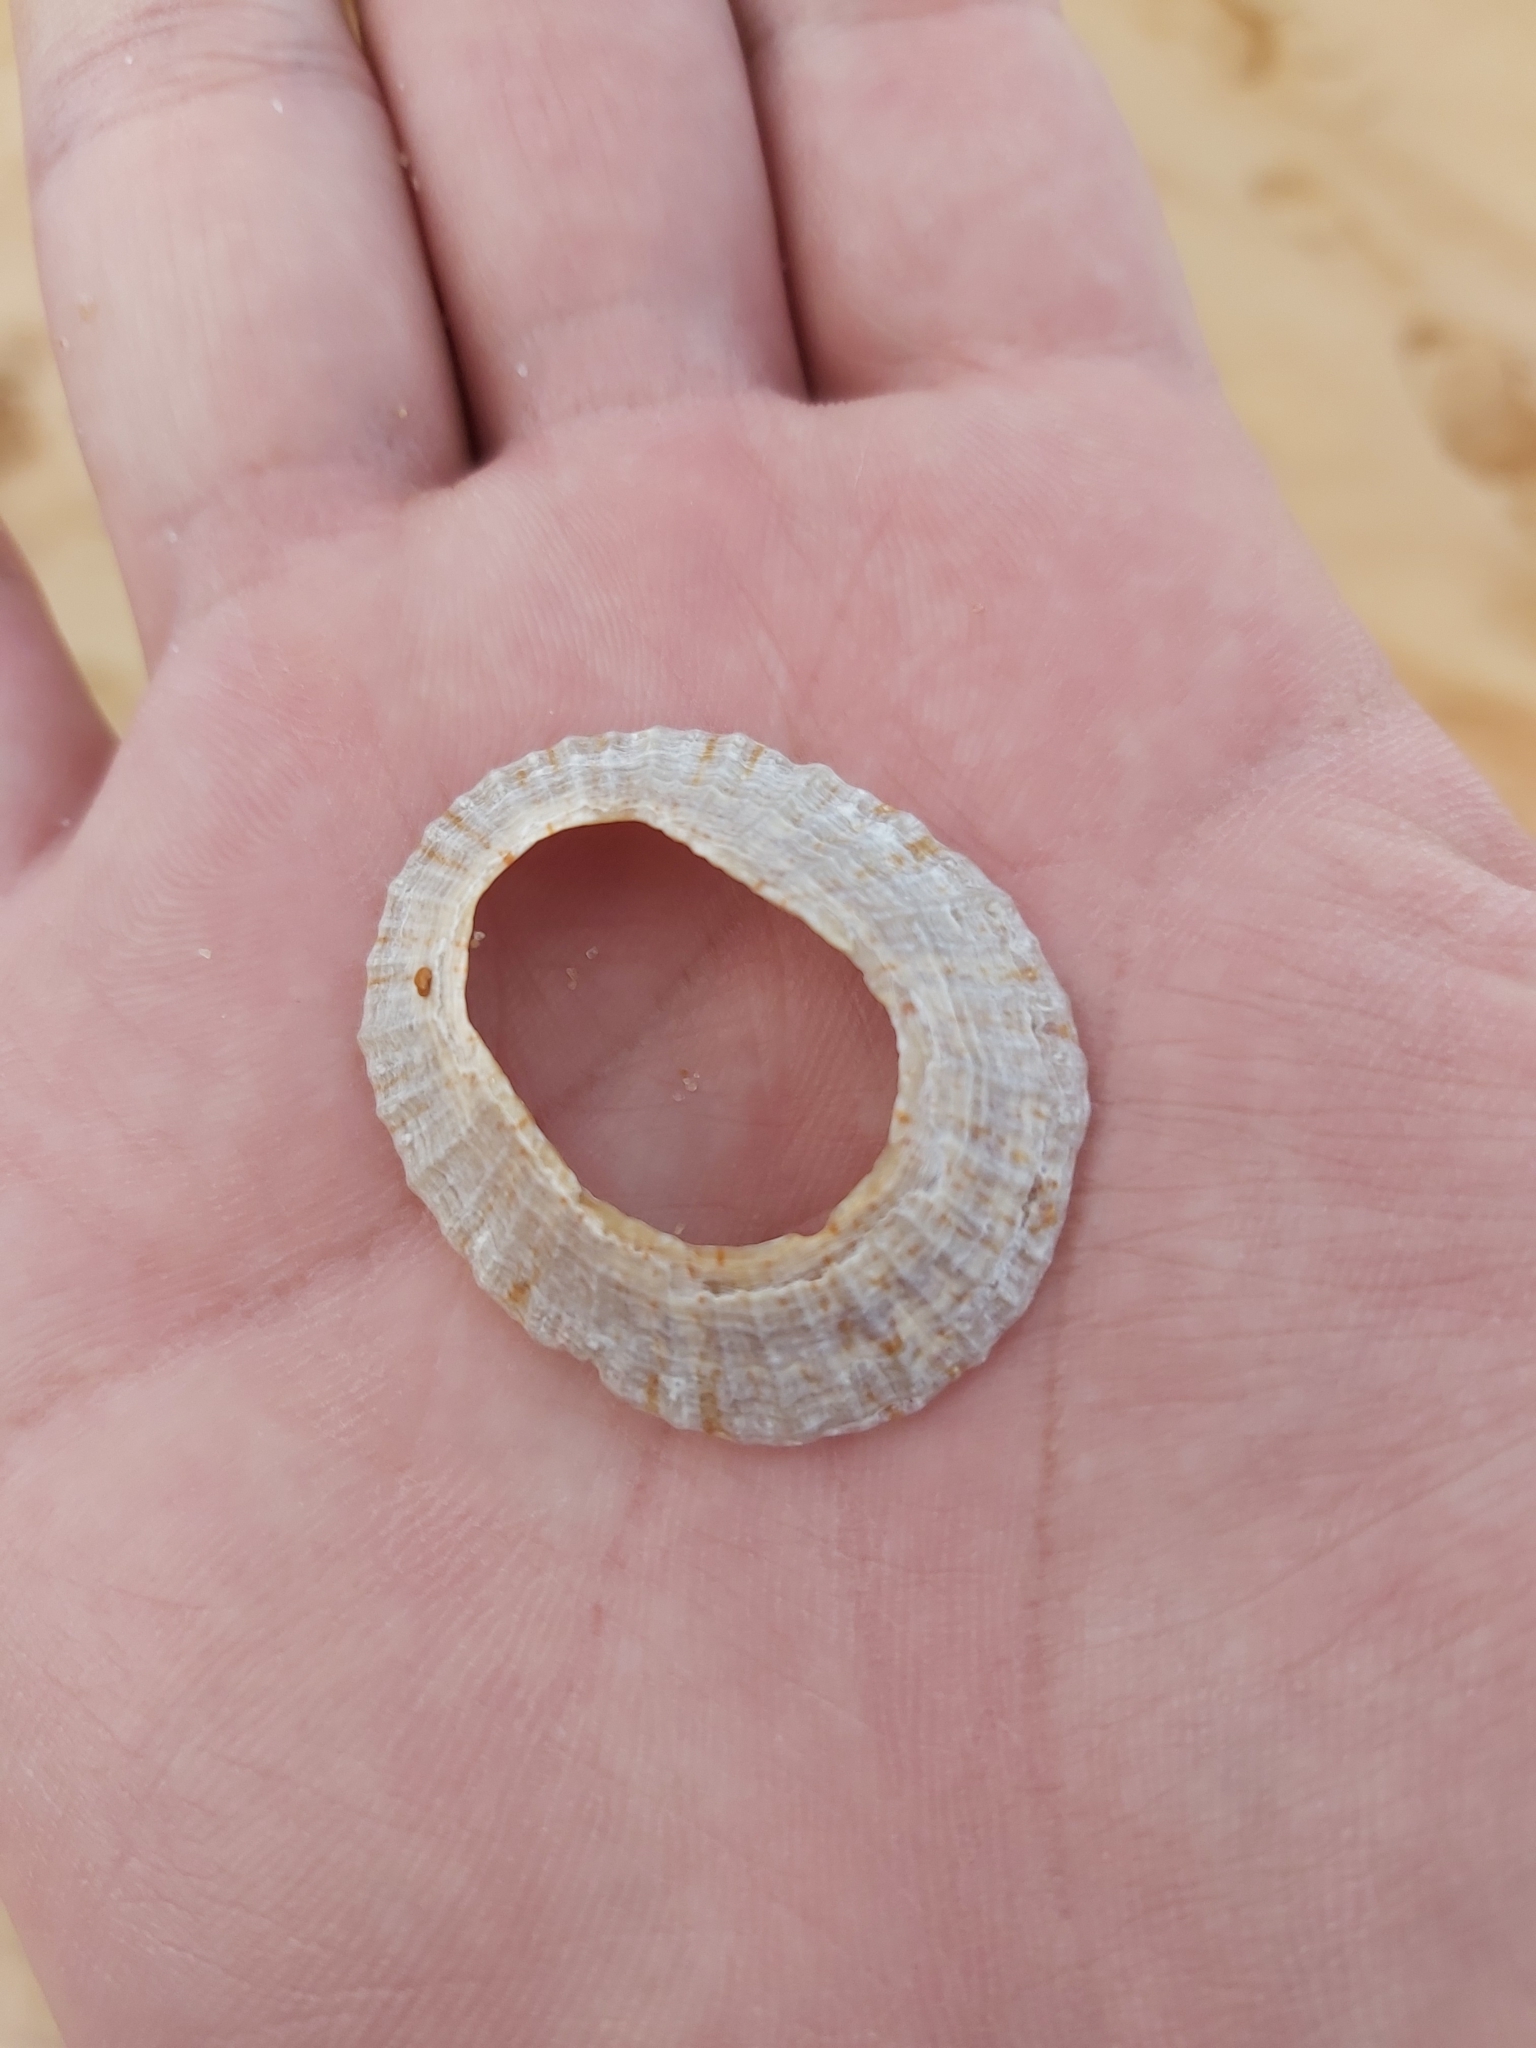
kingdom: Animalia
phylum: Mollusca
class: Gastropoda
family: Nacellidae
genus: Cellana
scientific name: Cellana tramoserica
